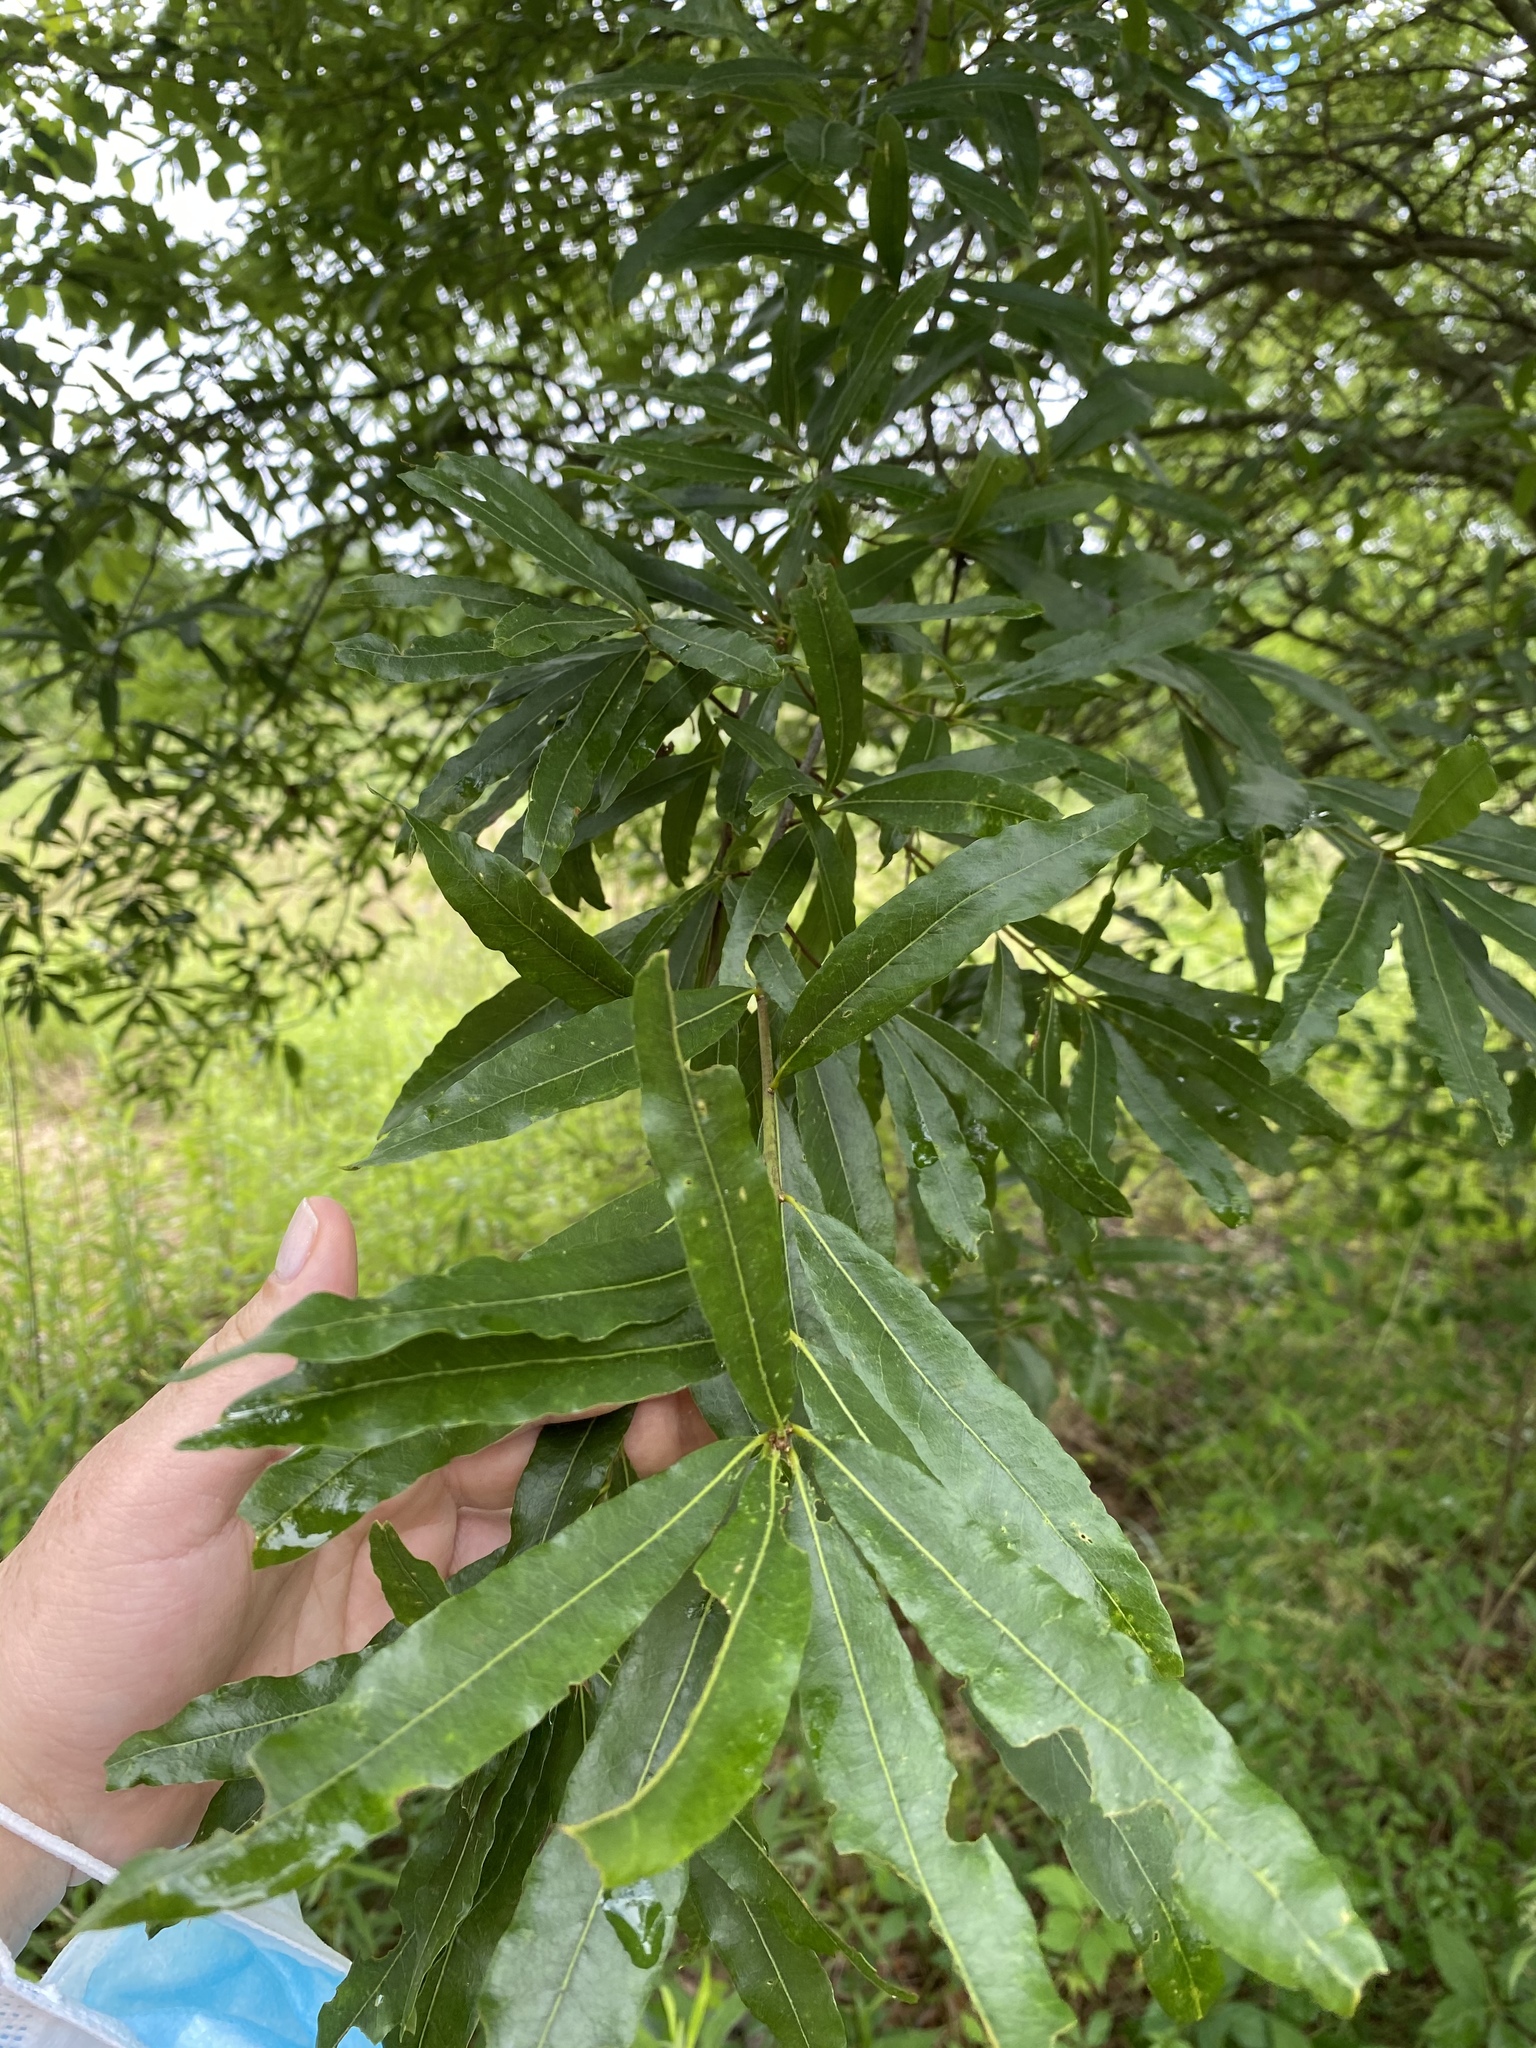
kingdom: Plantae
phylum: Tracheophyta
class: Magnoliopsida
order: Fagales
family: Fagaceae
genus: Quercus
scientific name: Quercus phellos
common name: Willow oak
